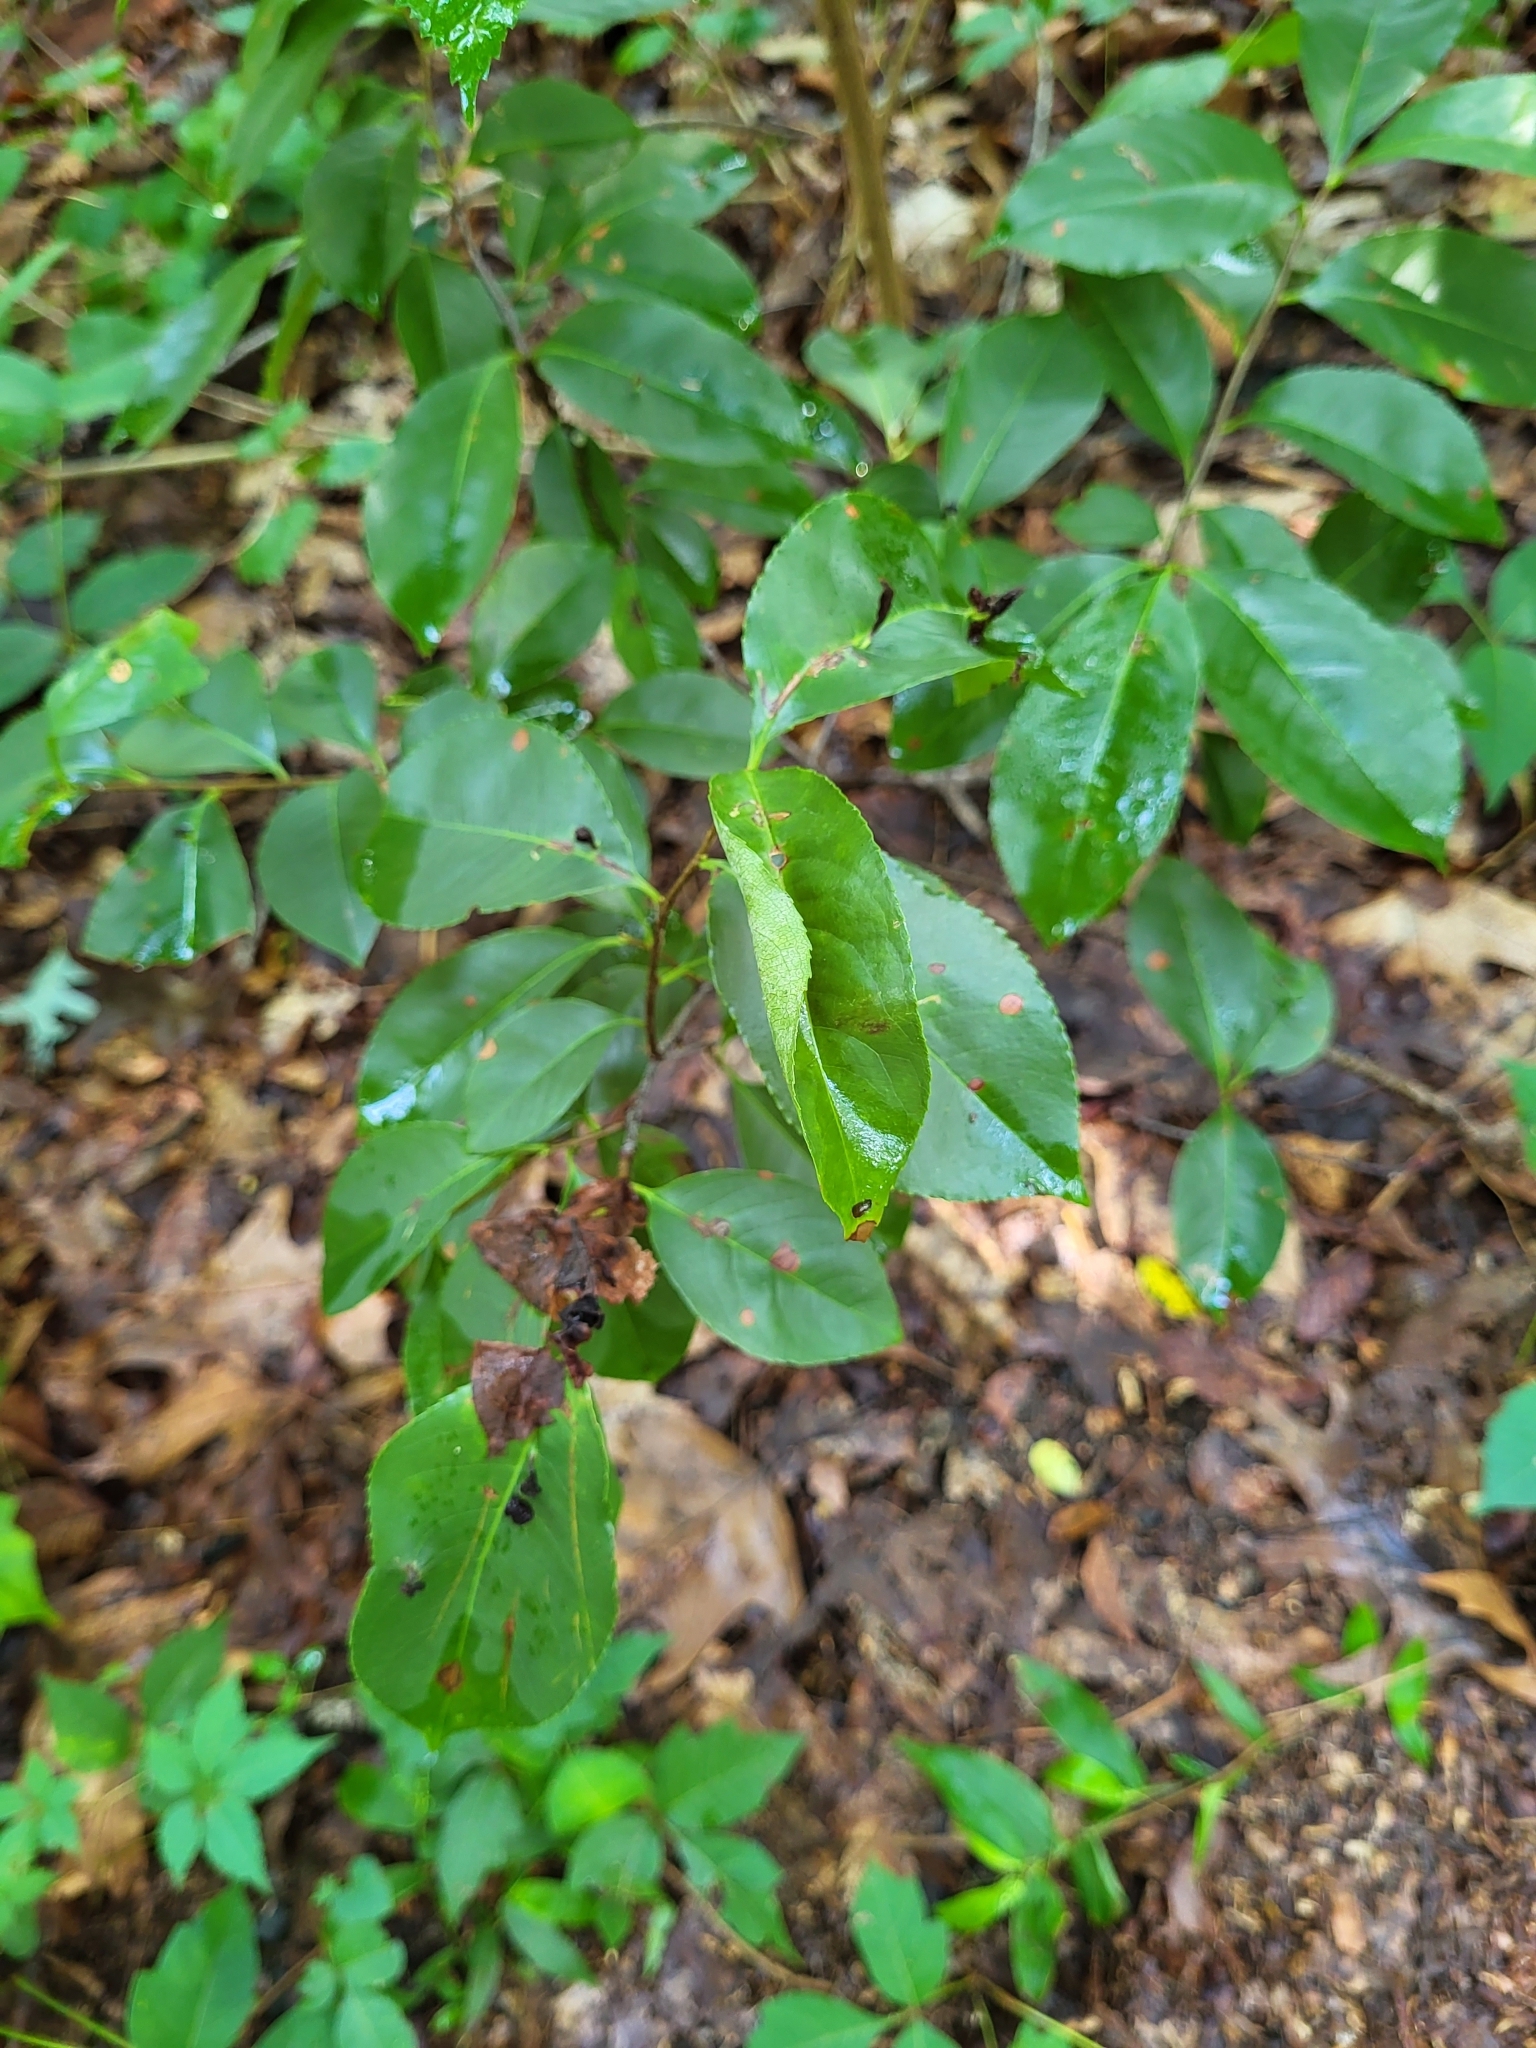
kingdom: Animalia
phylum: Arthropoda
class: Arachnida
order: Trombidiformes
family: Eriophyidae
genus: Eriophyes
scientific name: Eriophyes
